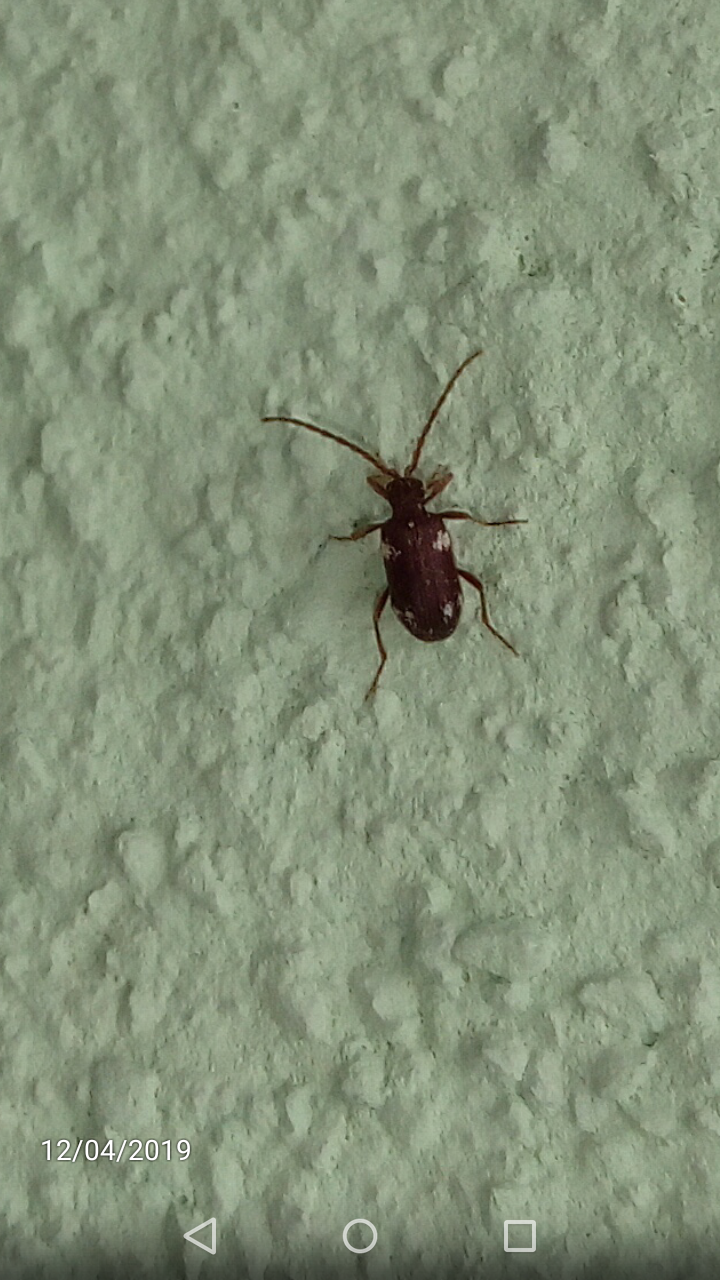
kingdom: Animalia
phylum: Arthropoda
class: Insecta
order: Coleoptera
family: Ptinidae
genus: Ptinus
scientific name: Ptinus sexpunctatus
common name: Six-spotted spider beetle
